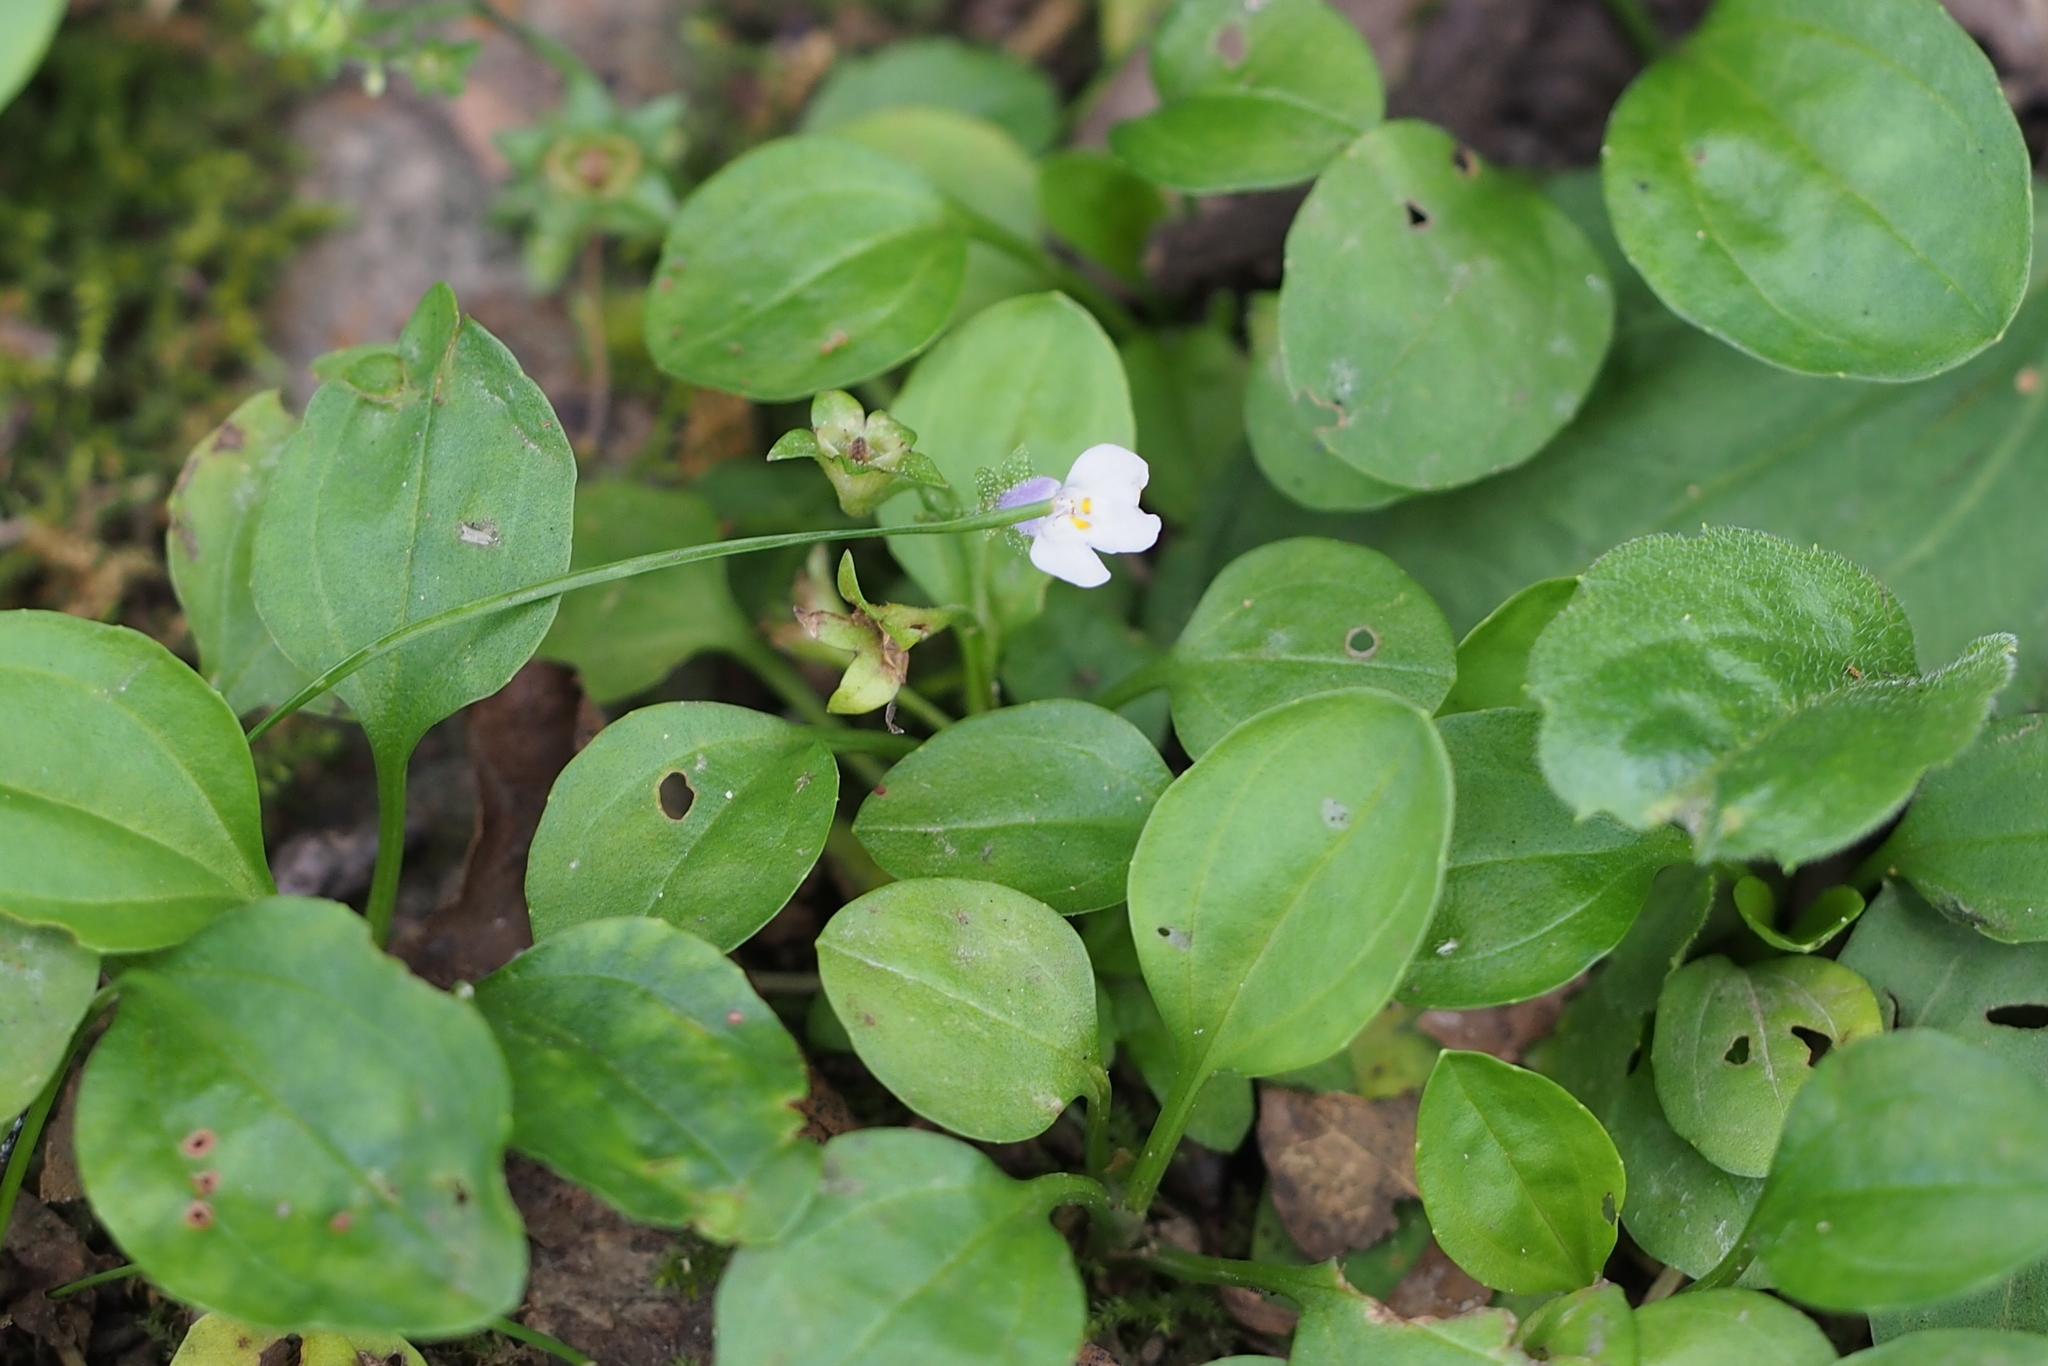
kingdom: Plantae
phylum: Tracheophyta
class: Magnoliopsida
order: Lamiales
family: Mazaceae
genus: Mazus
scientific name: Mazus pumilus
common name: Japanese mazus
